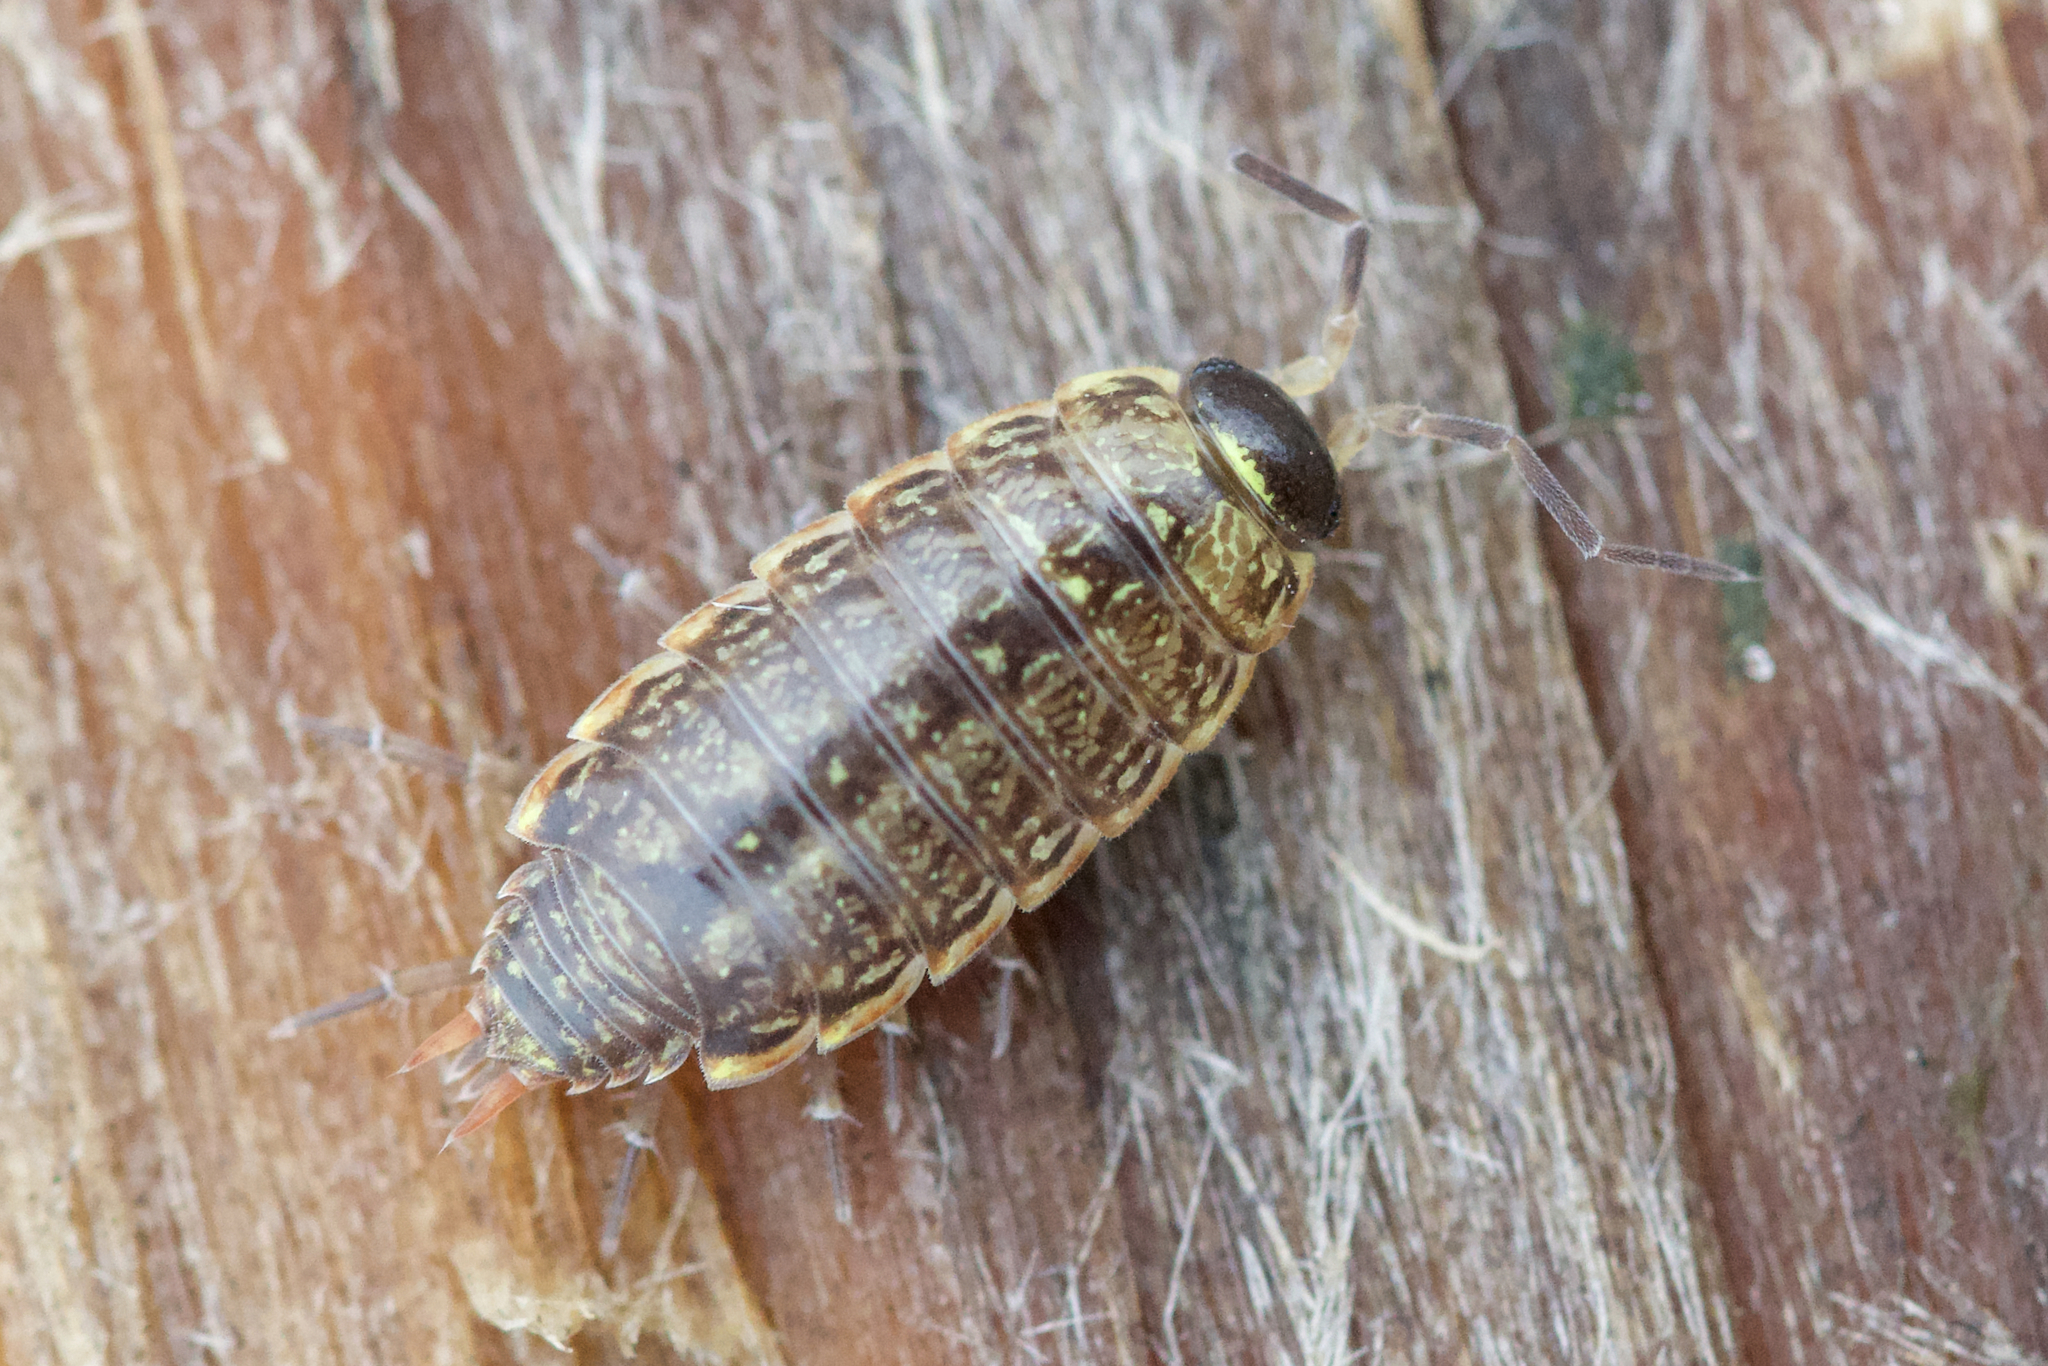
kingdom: Animalia
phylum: Arthropoda
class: Malacostraca
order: Isopoda
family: Philosciidae
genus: Philoscia
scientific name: Philoscia muscorum
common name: Common striped woodlouse
